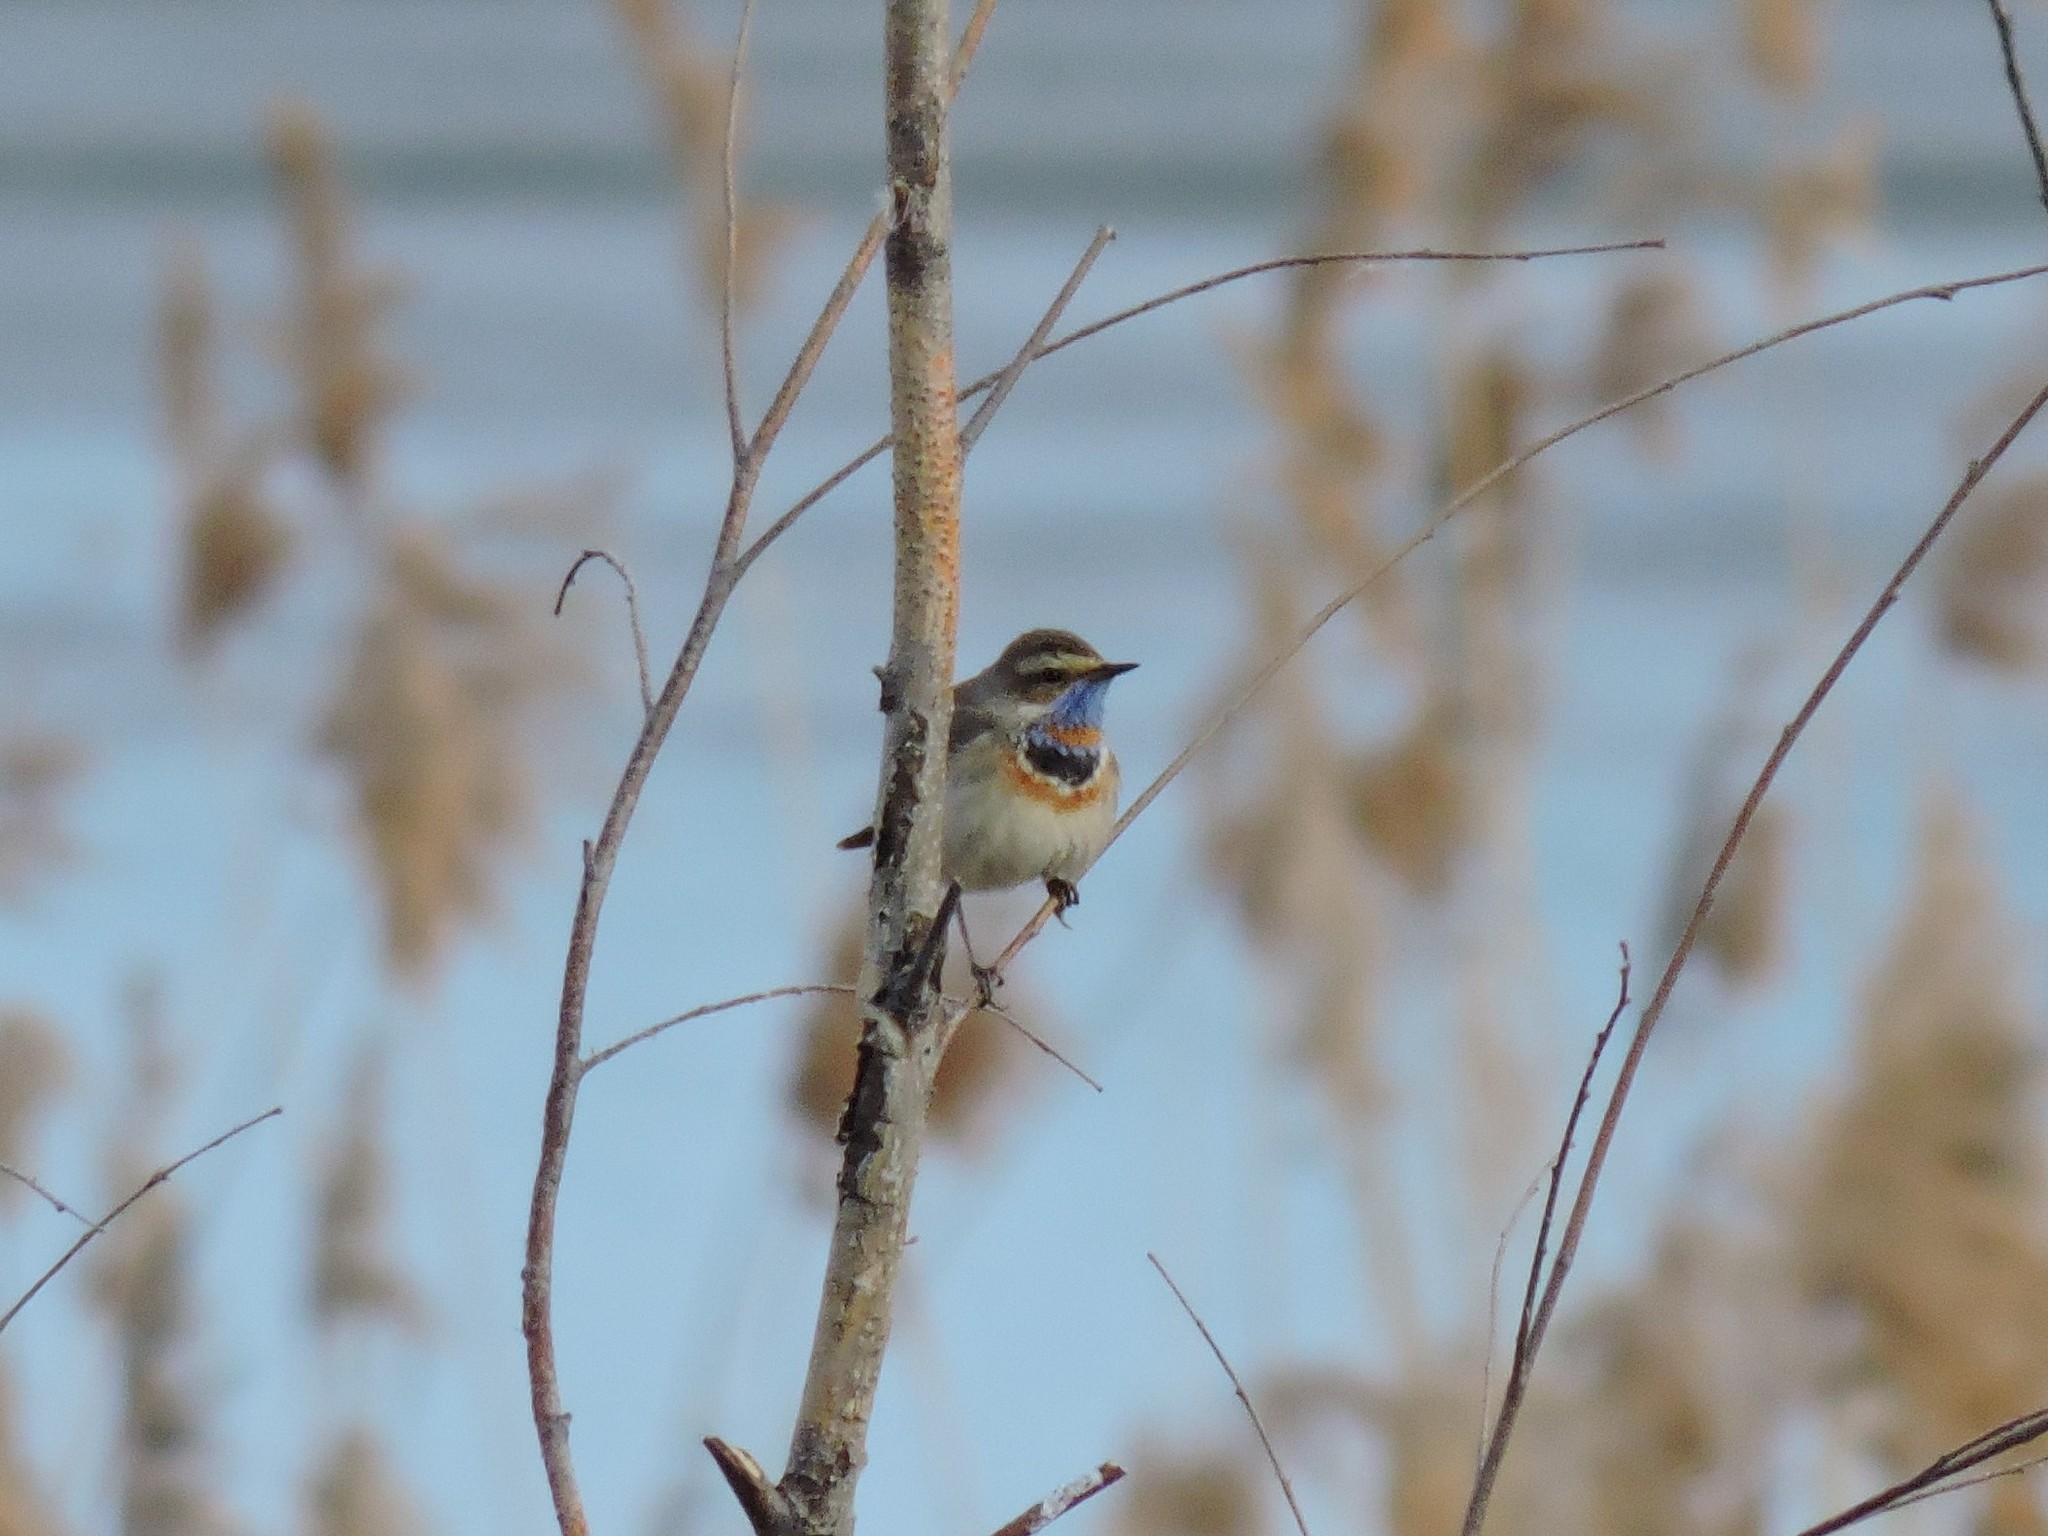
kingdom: Animalia
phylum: Chordata
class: Aves
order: Passeriformes
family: Muscicapidae
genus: Luscinia
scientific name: Luscinia svecica
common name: Bluethroat
